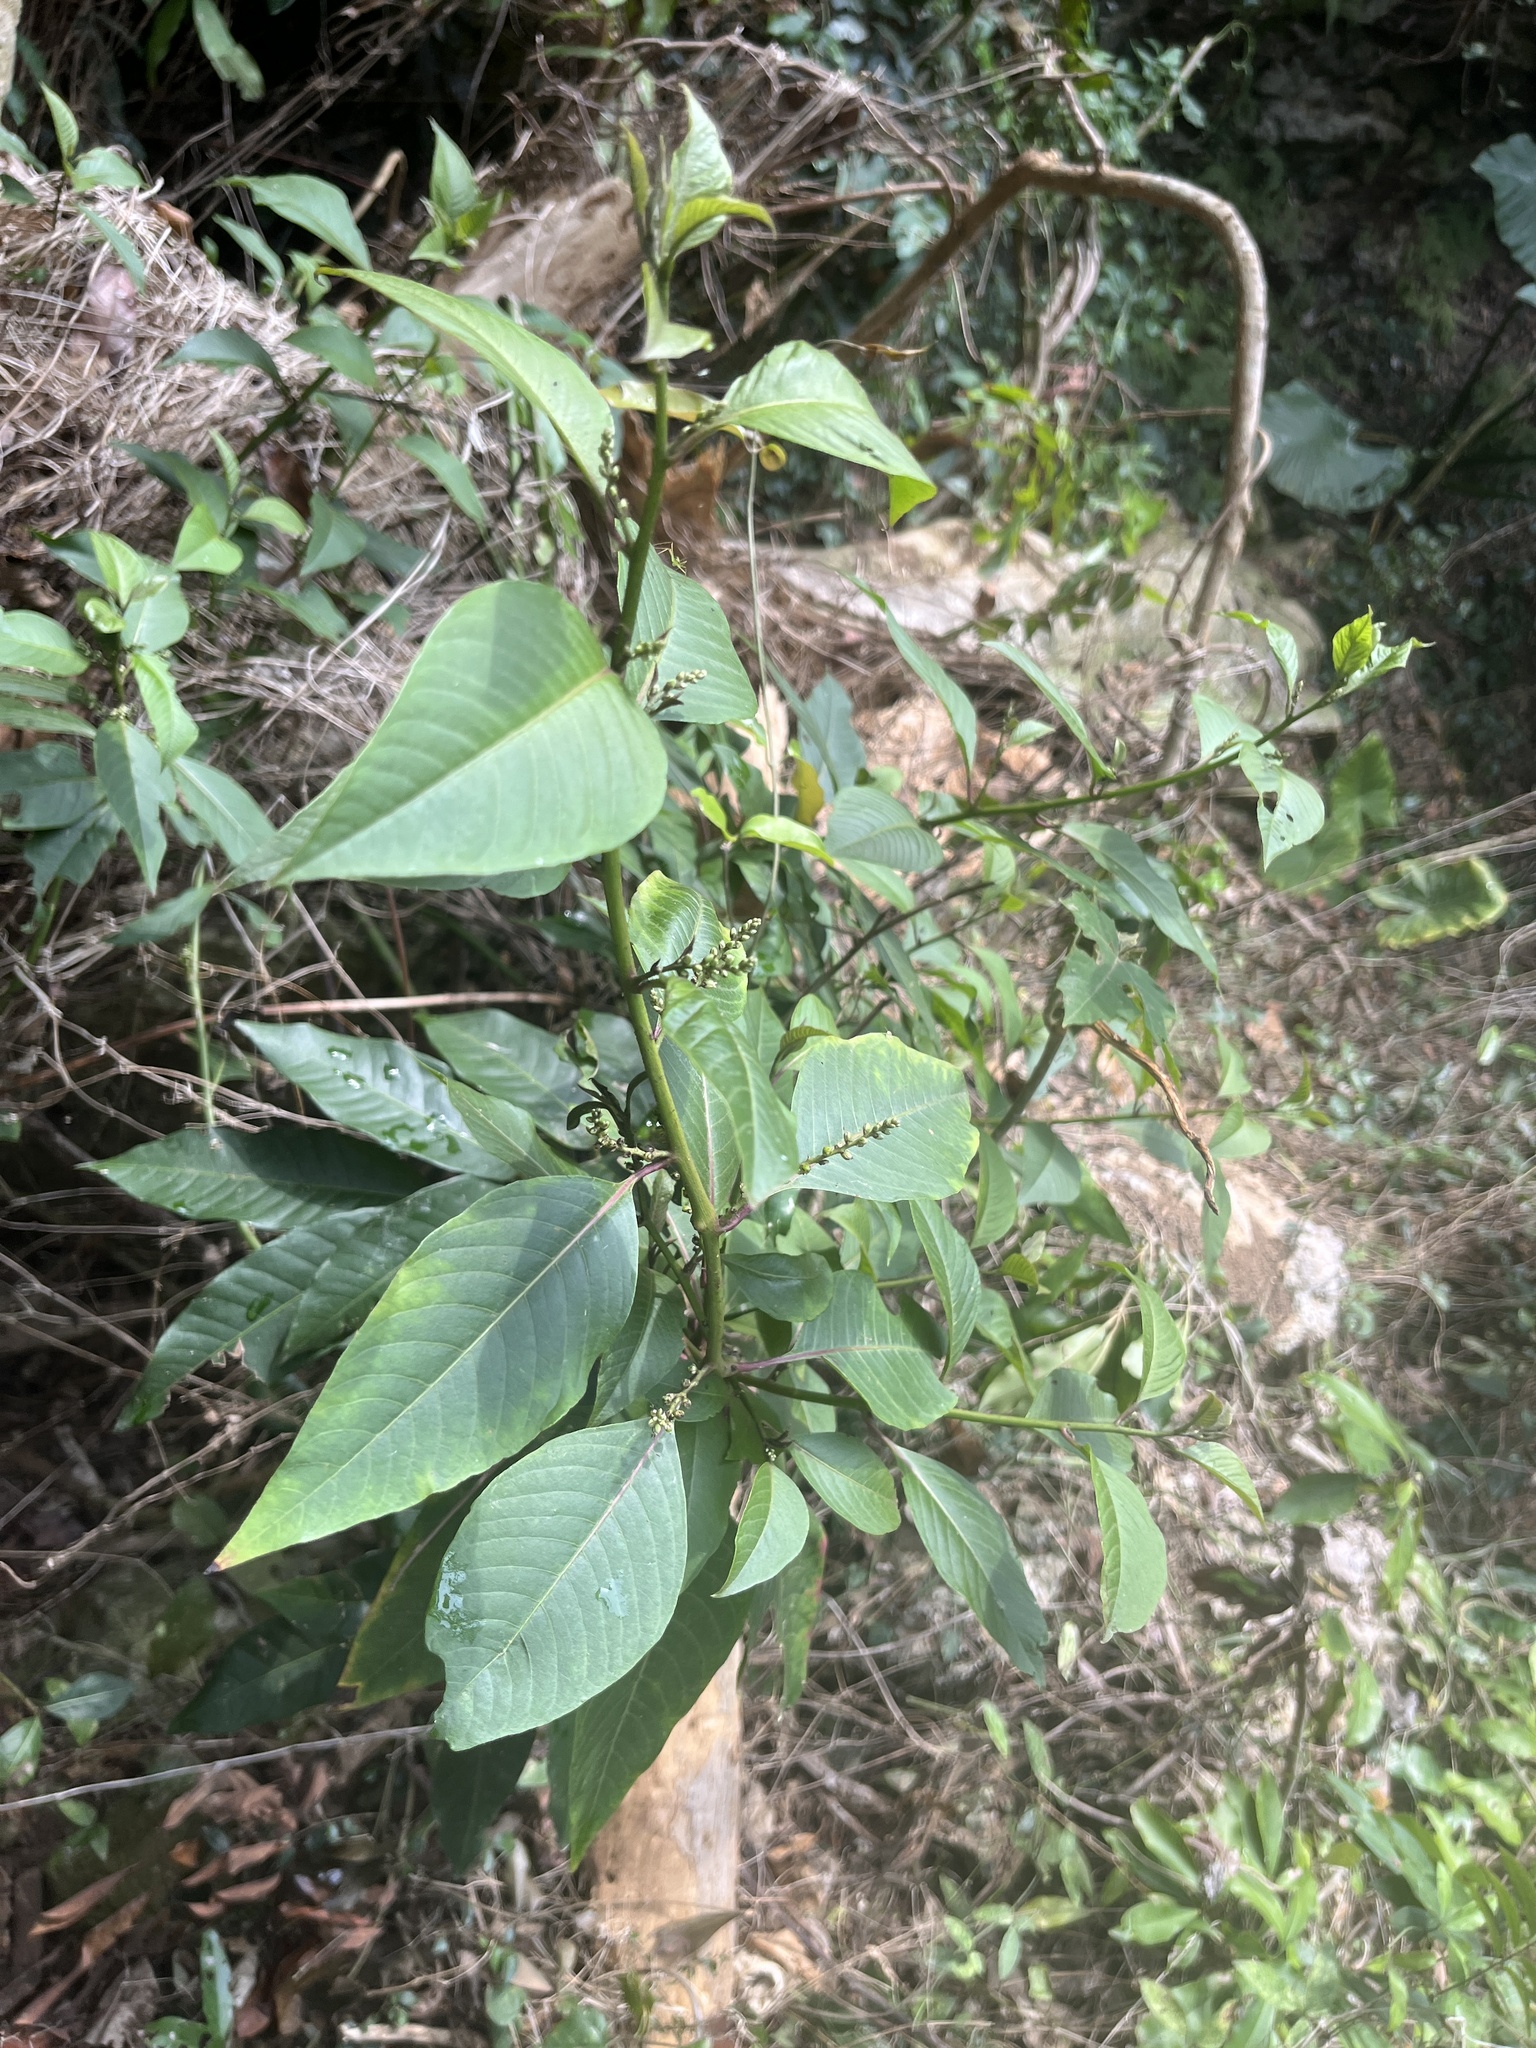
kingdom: Plantae
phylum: Tracheophyta
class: Magnoliopsida
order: Caryophyllales
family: Amaranthaceae
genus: Deeringia
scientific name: Deeringia polysperma
